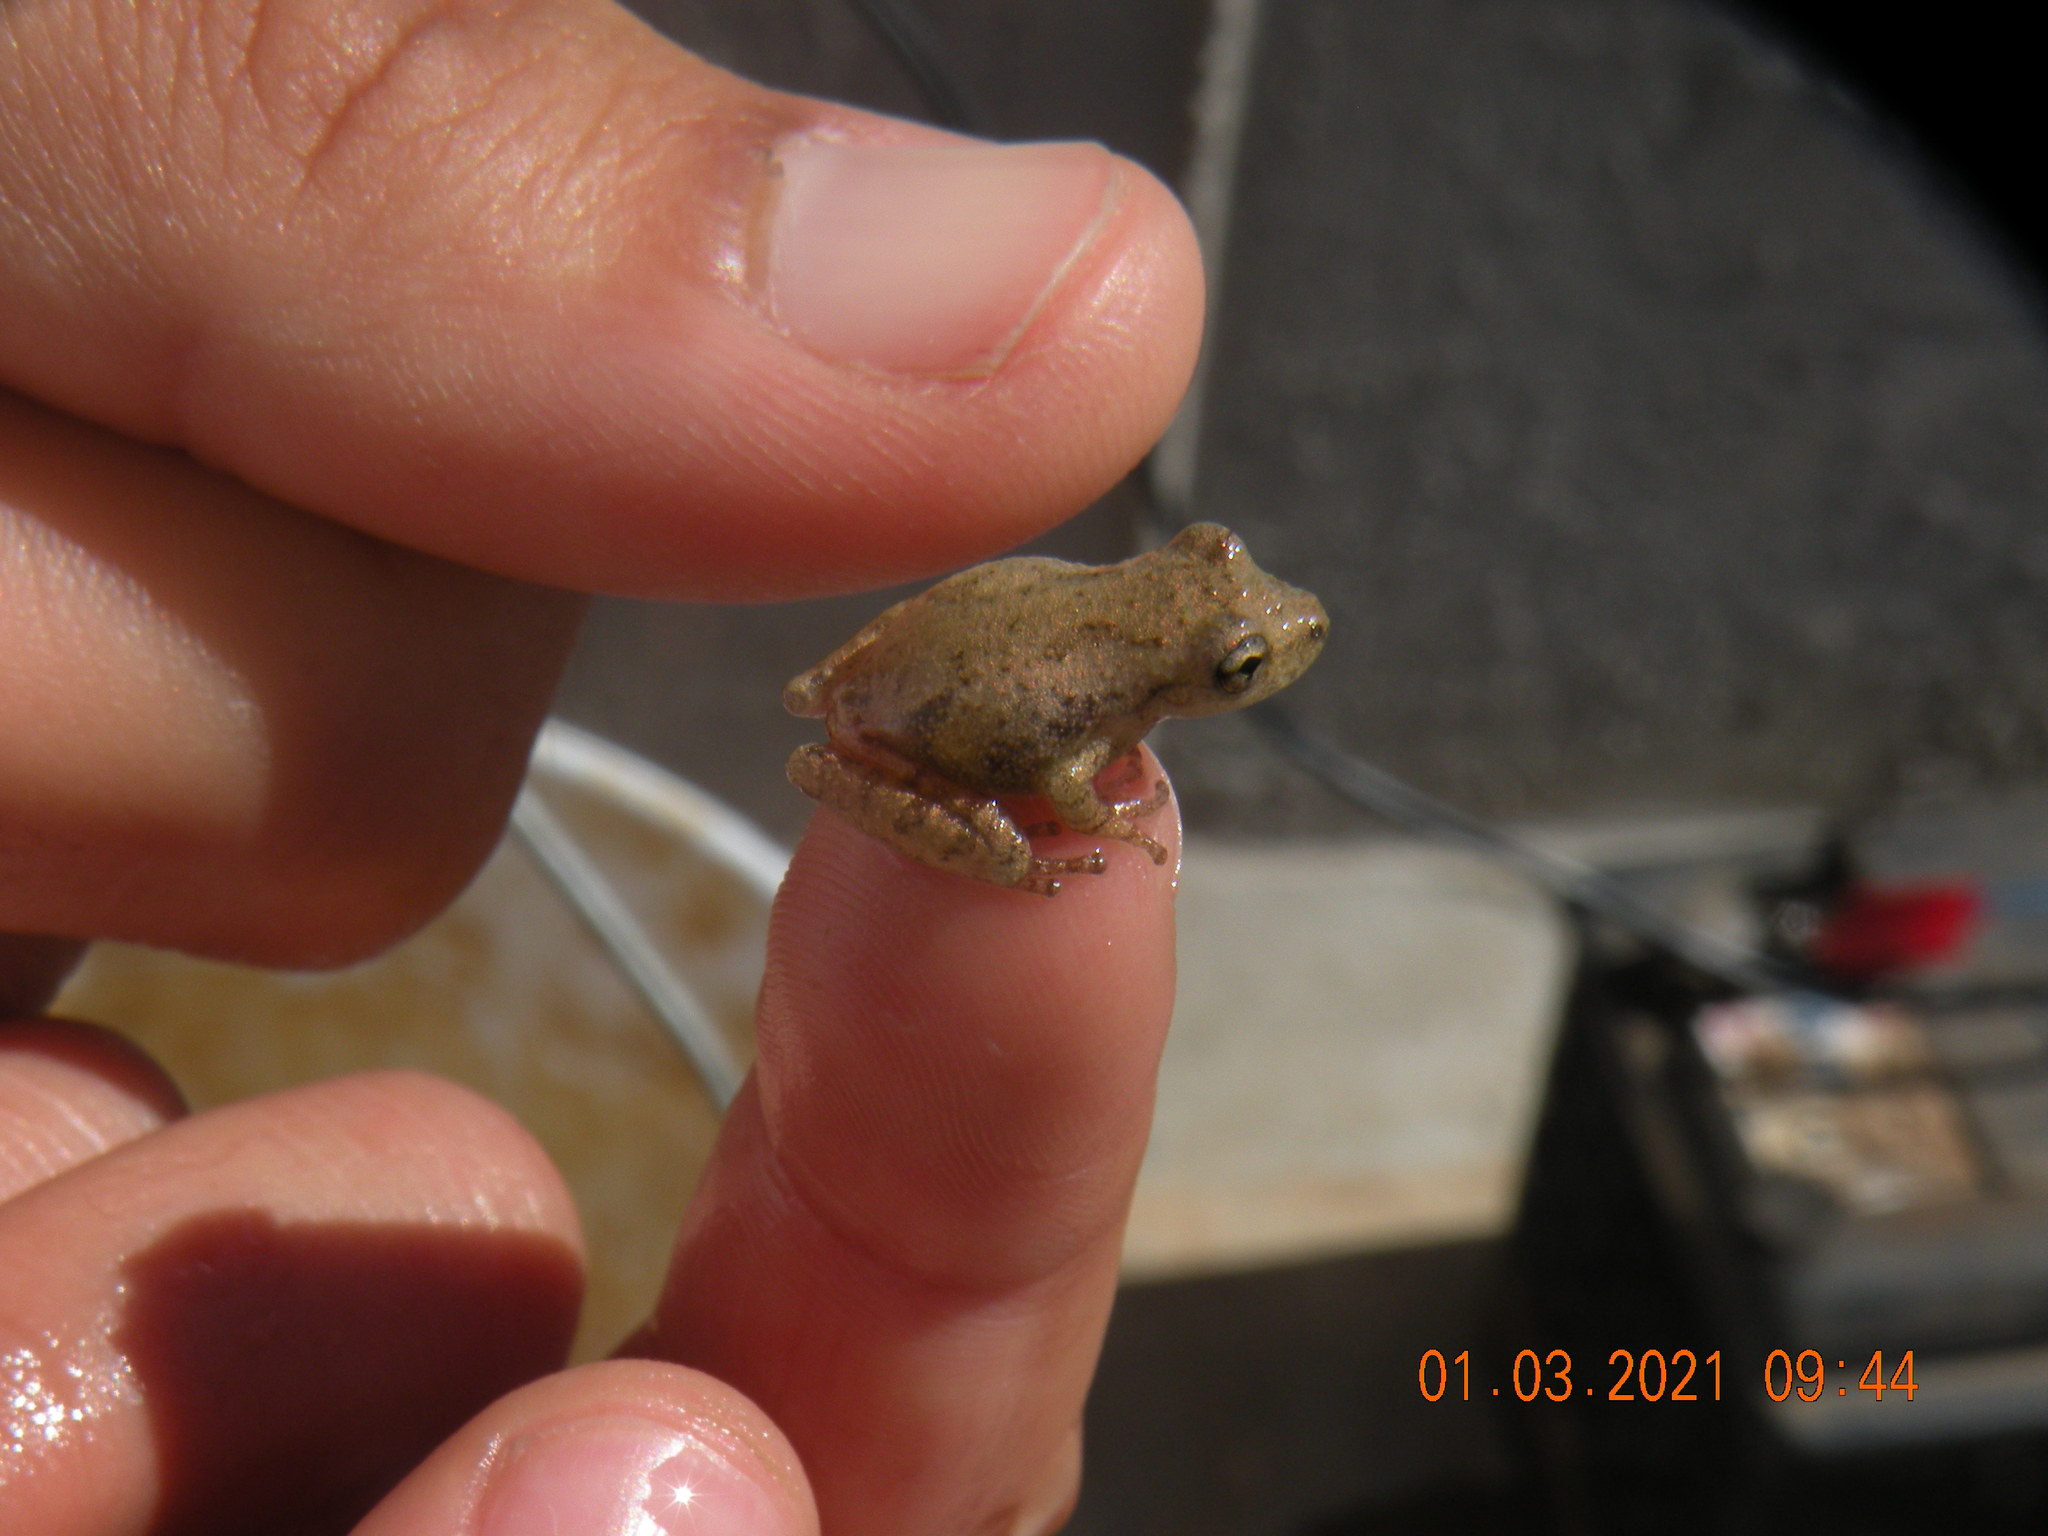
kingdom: Animalia
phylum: Chordata
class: Amphibia
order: Anura
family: Hylidae
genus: Scinax
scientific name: Scinax granulatus
